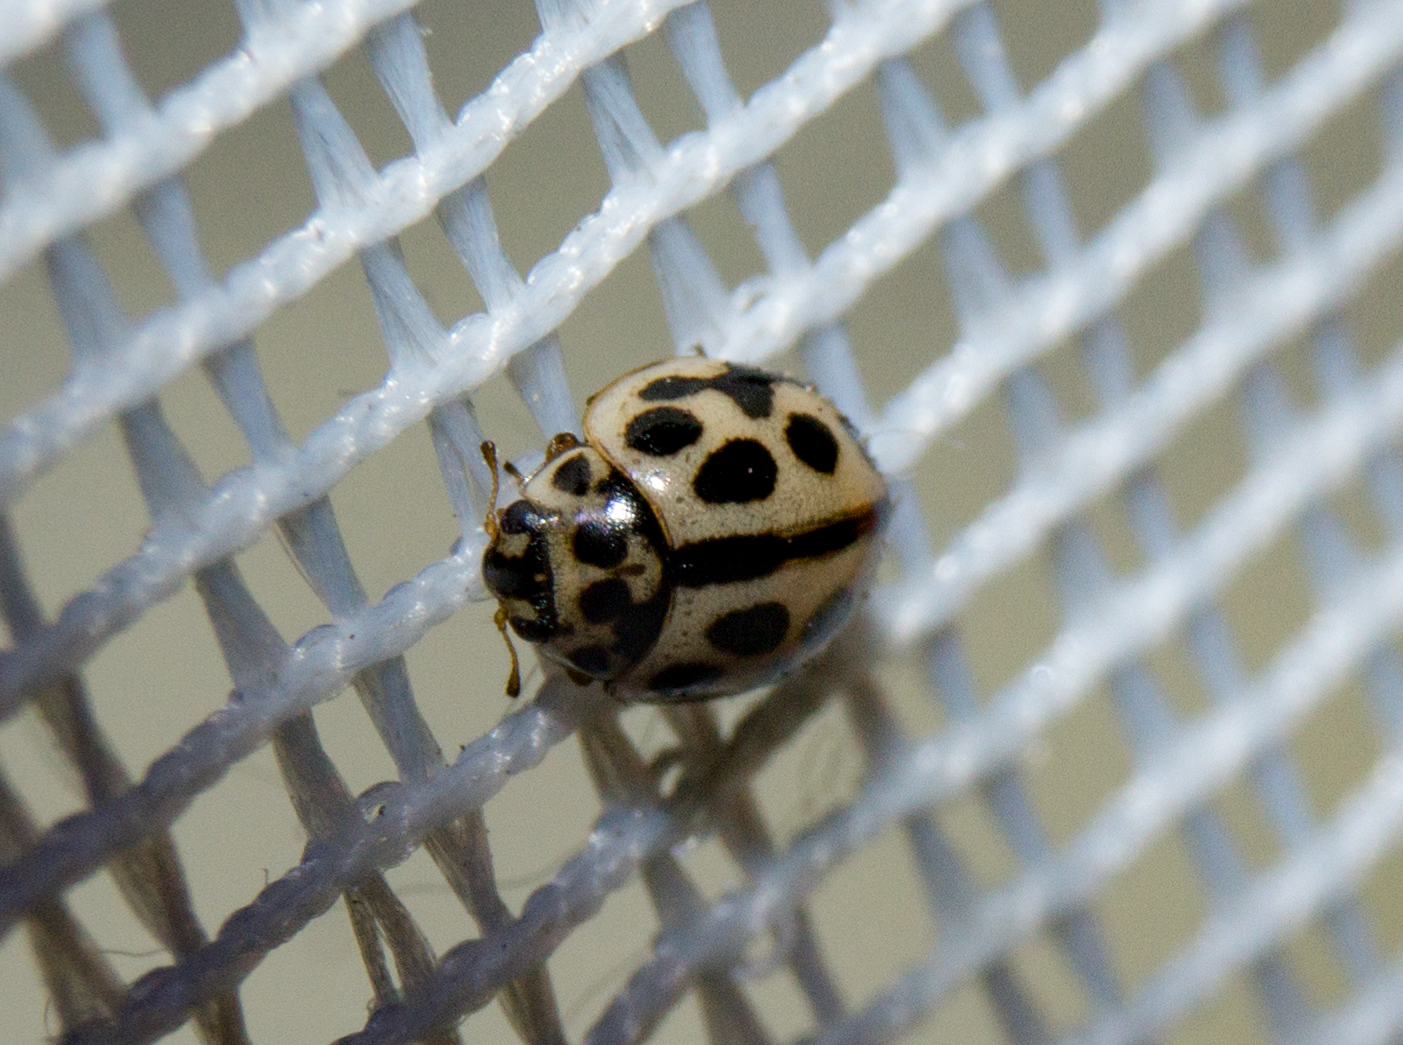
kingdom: Animalia
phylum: Arthropoda
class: Insecta
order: Coleoptera
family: Coccinellidae
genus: Tytthaspis
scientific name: Tytthaspis sedecimpunctata
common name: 16-spot ladybird
